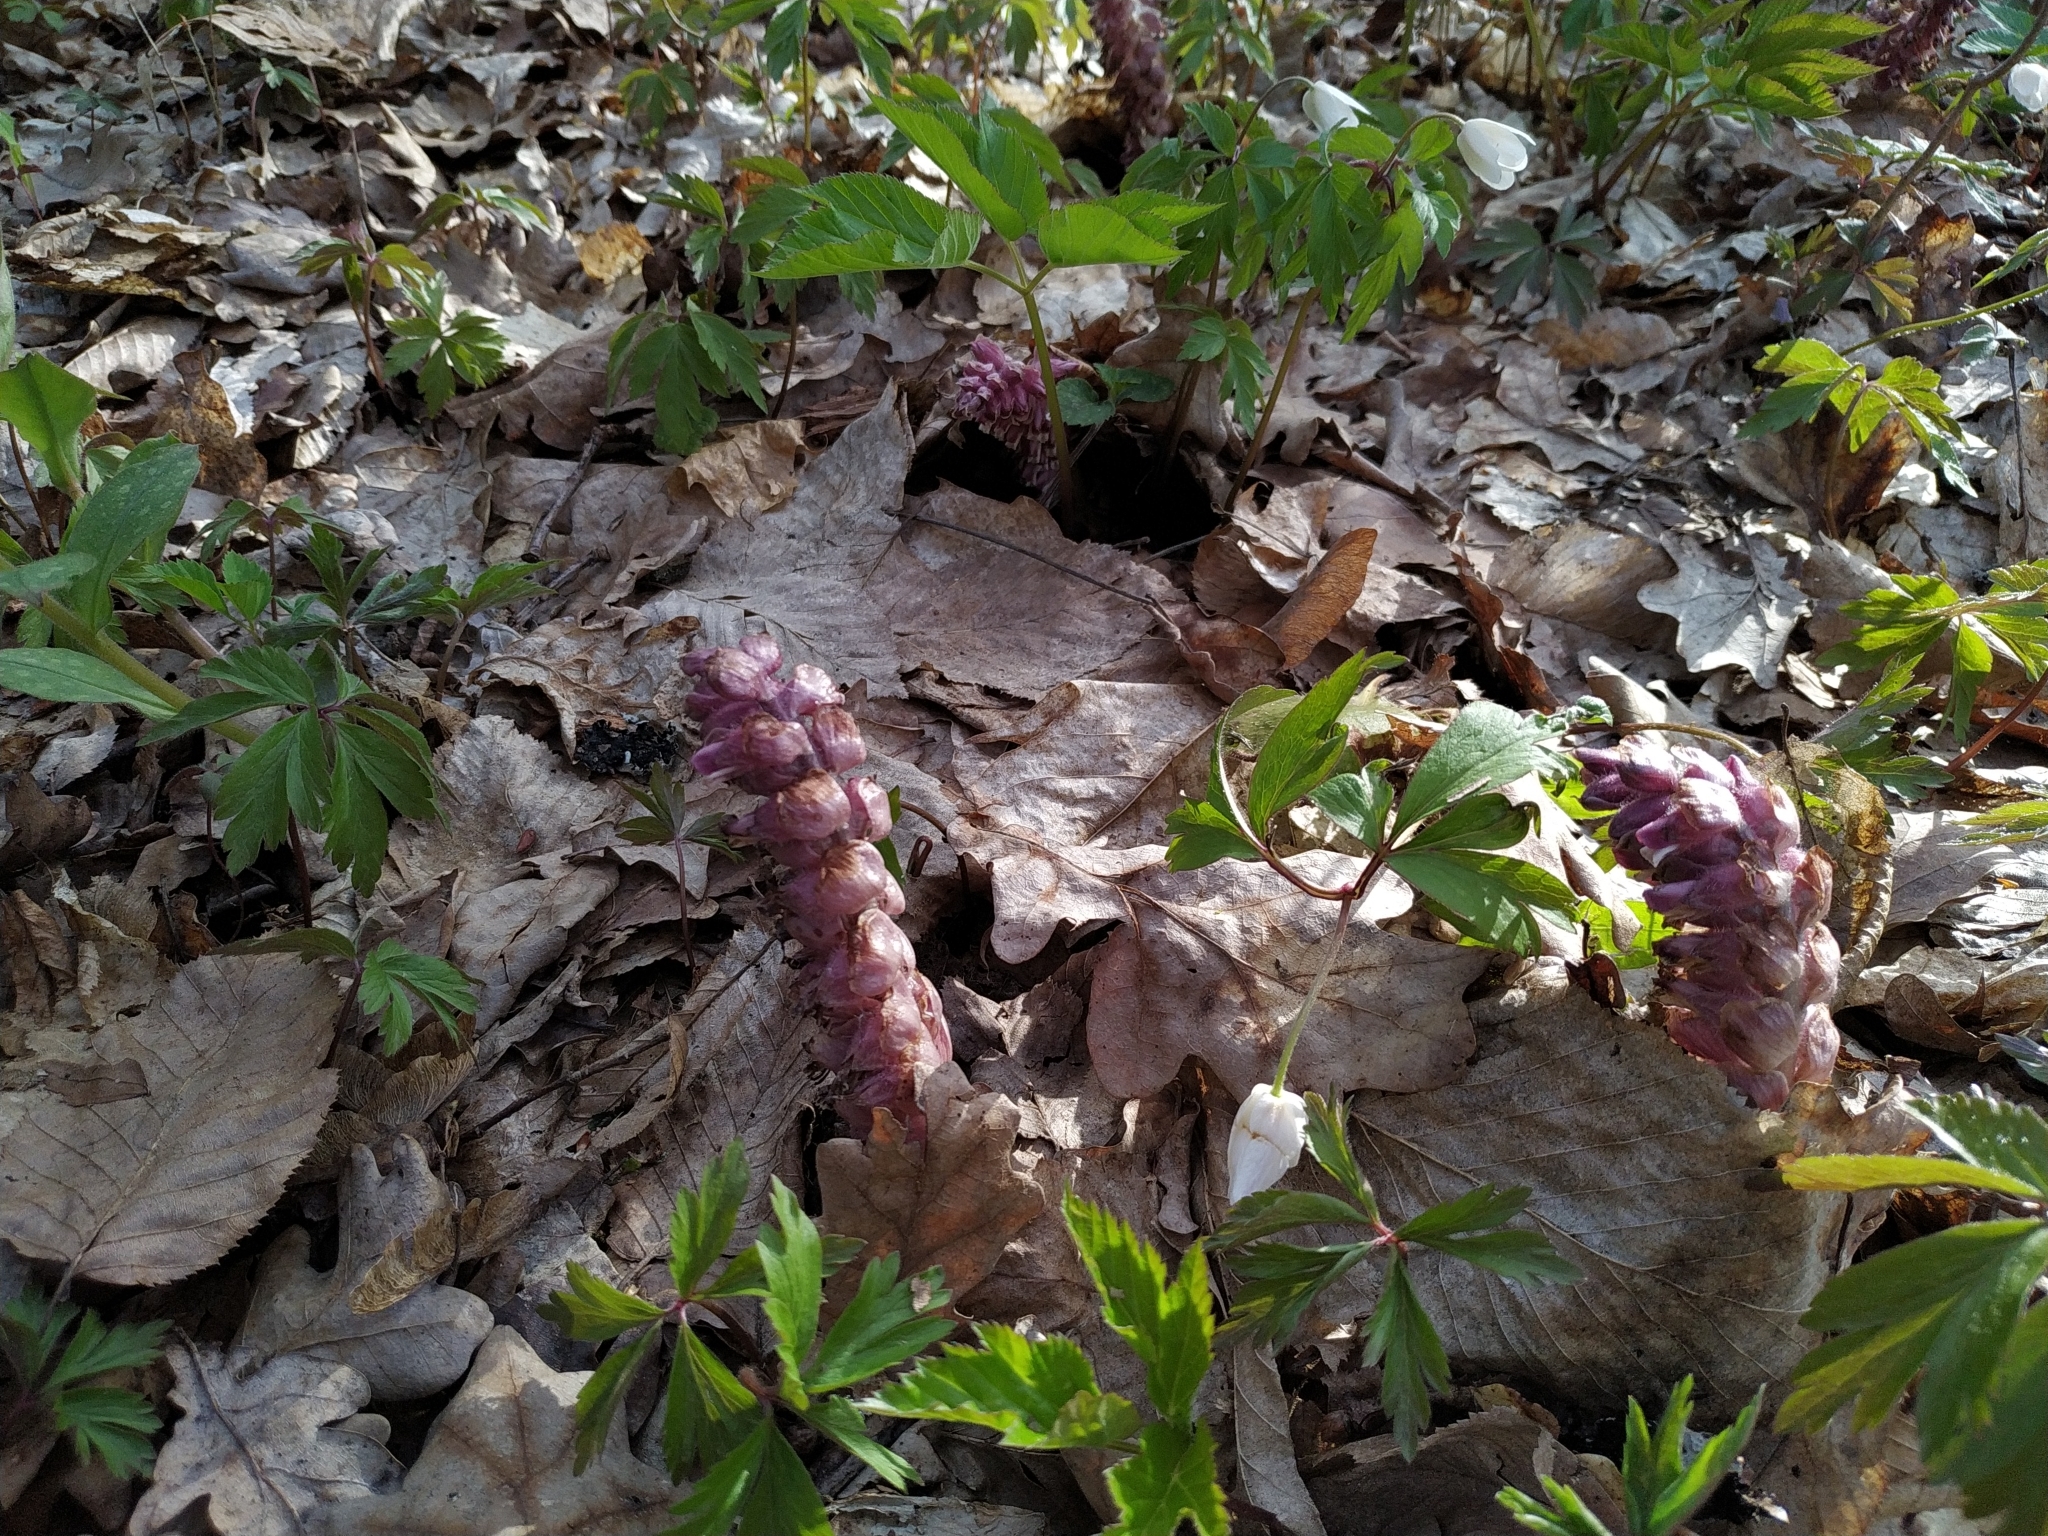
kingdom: Plantae
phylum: Tracheophyta
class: Magnoliopsida
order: Lamiales
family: Orobanchaceae
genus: Lathraea
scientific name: Lathraea squamaria
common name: Toothwort
